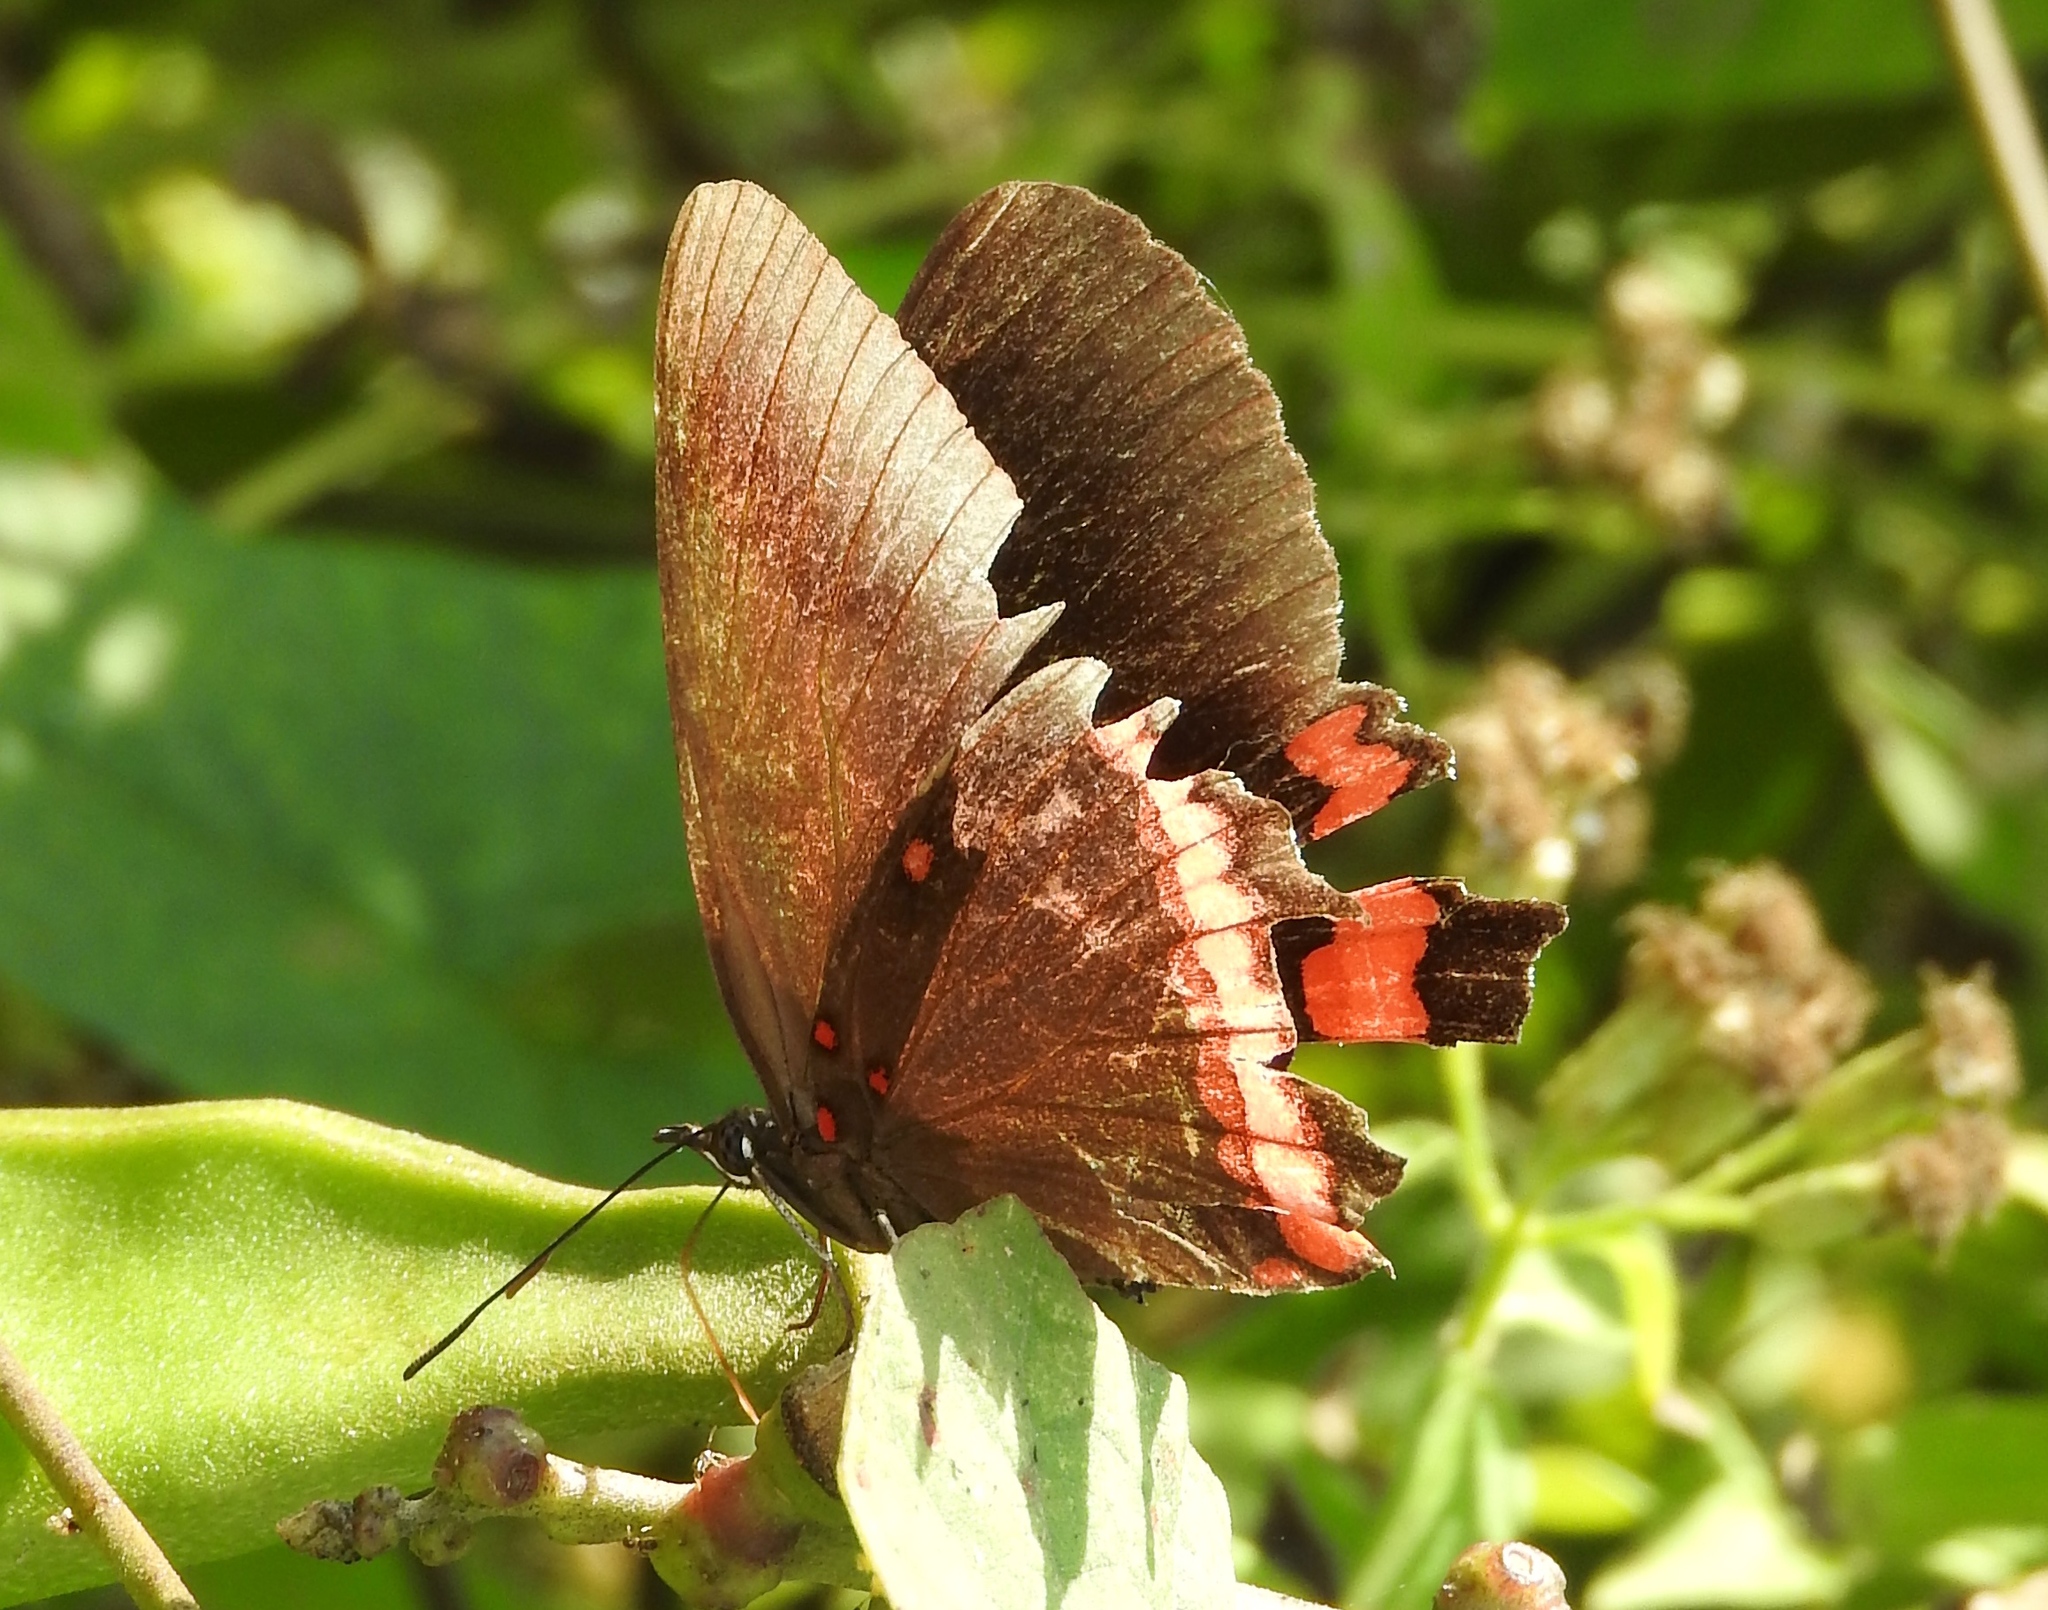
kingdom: Animalia
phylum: Arthropoda
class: Insecta
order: Lepidoptera
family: Nymphalidae
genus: Biblis
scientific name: Biblis aganisa
